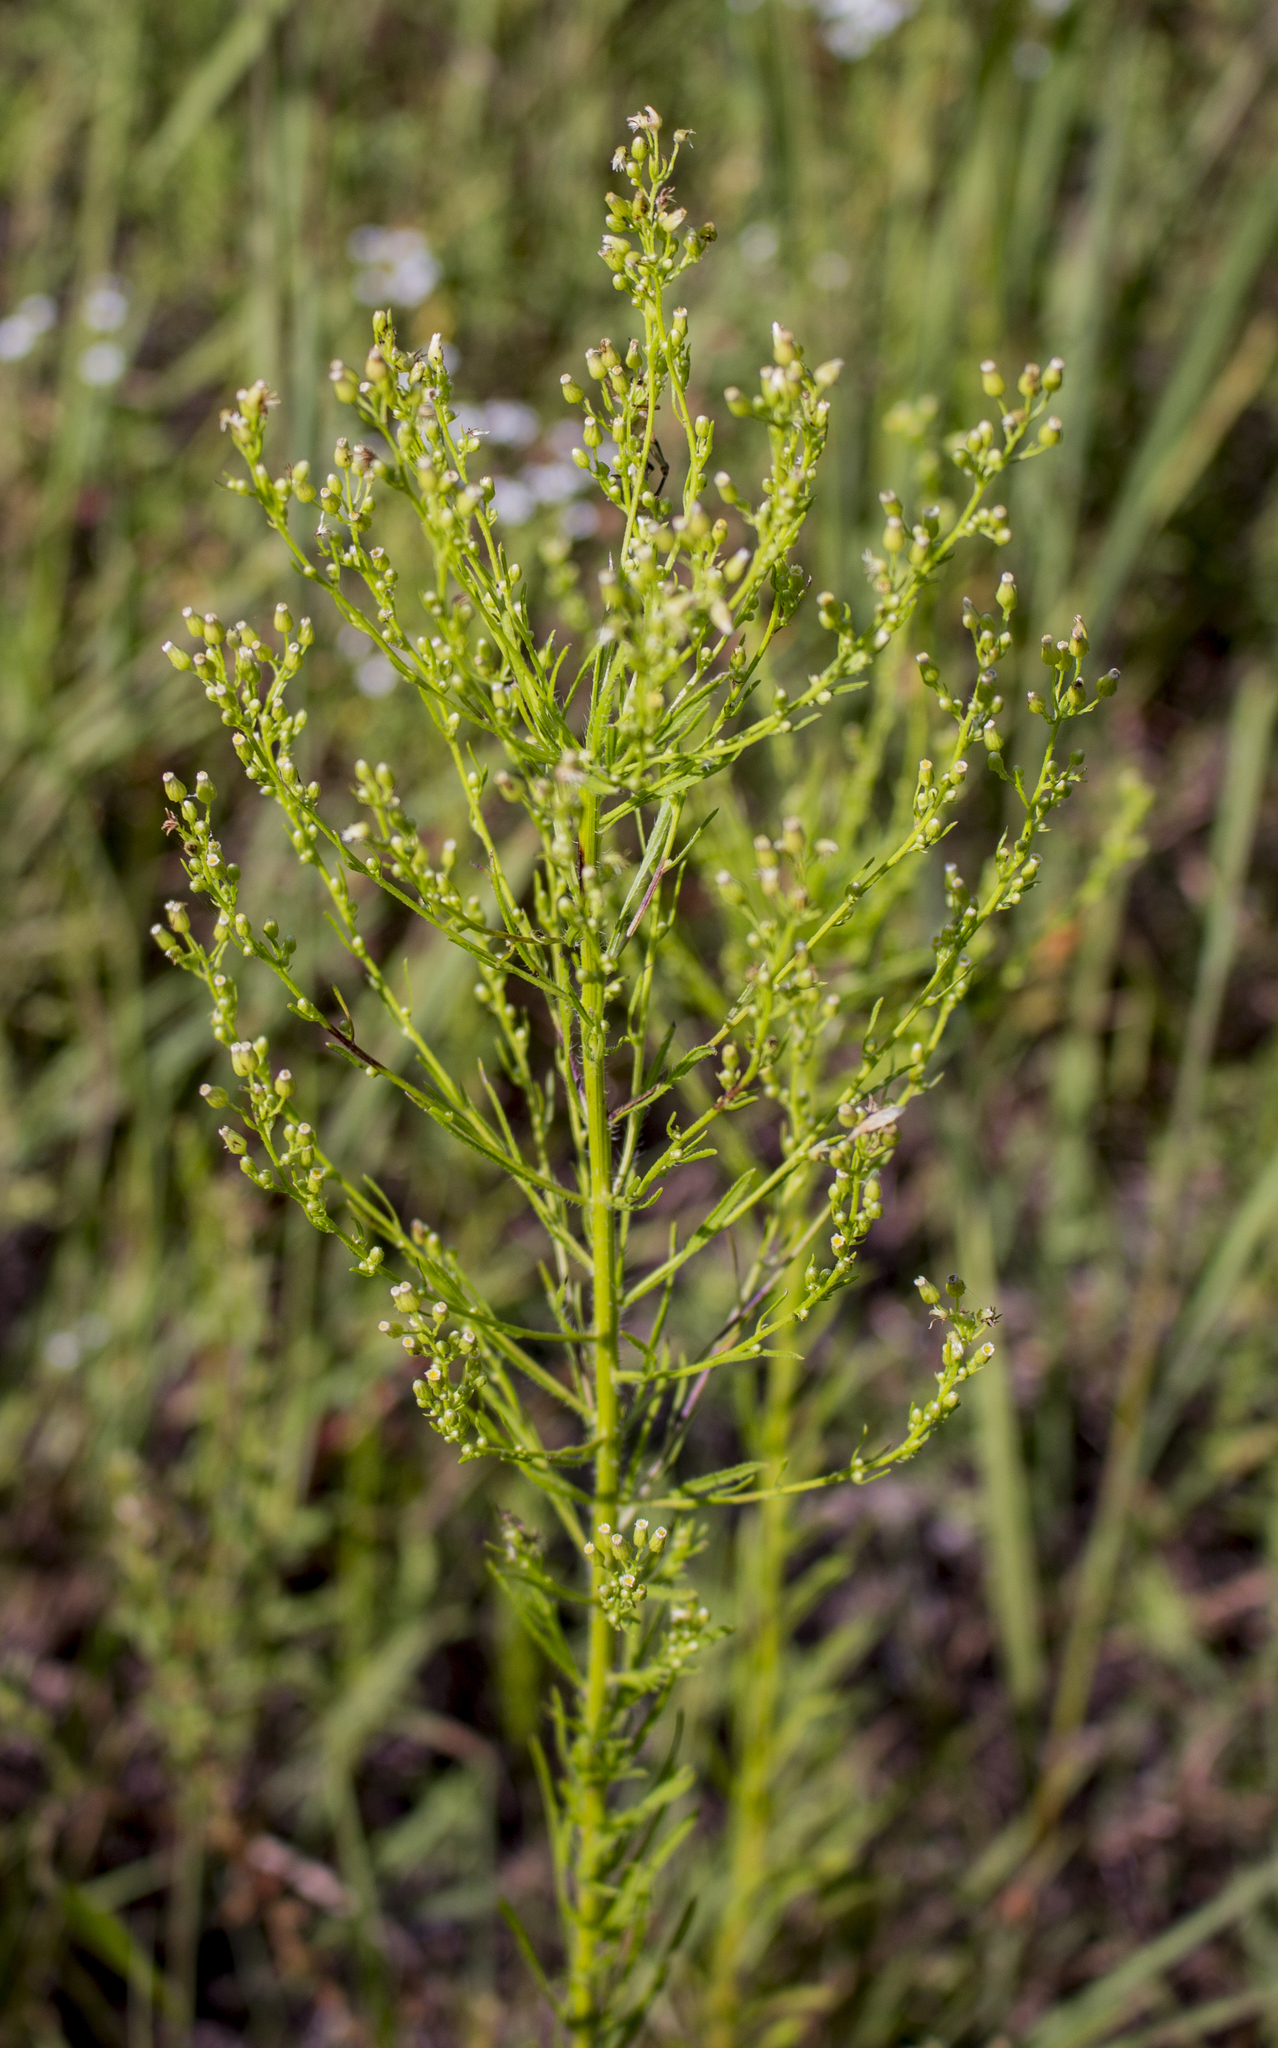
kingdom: Plantae
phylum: Tracheophyta
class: Magnoliopsida
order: Asterales
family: Asteraceae
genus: Erigeron
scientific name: Erigeron canadensis
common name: Canadian fleabane
